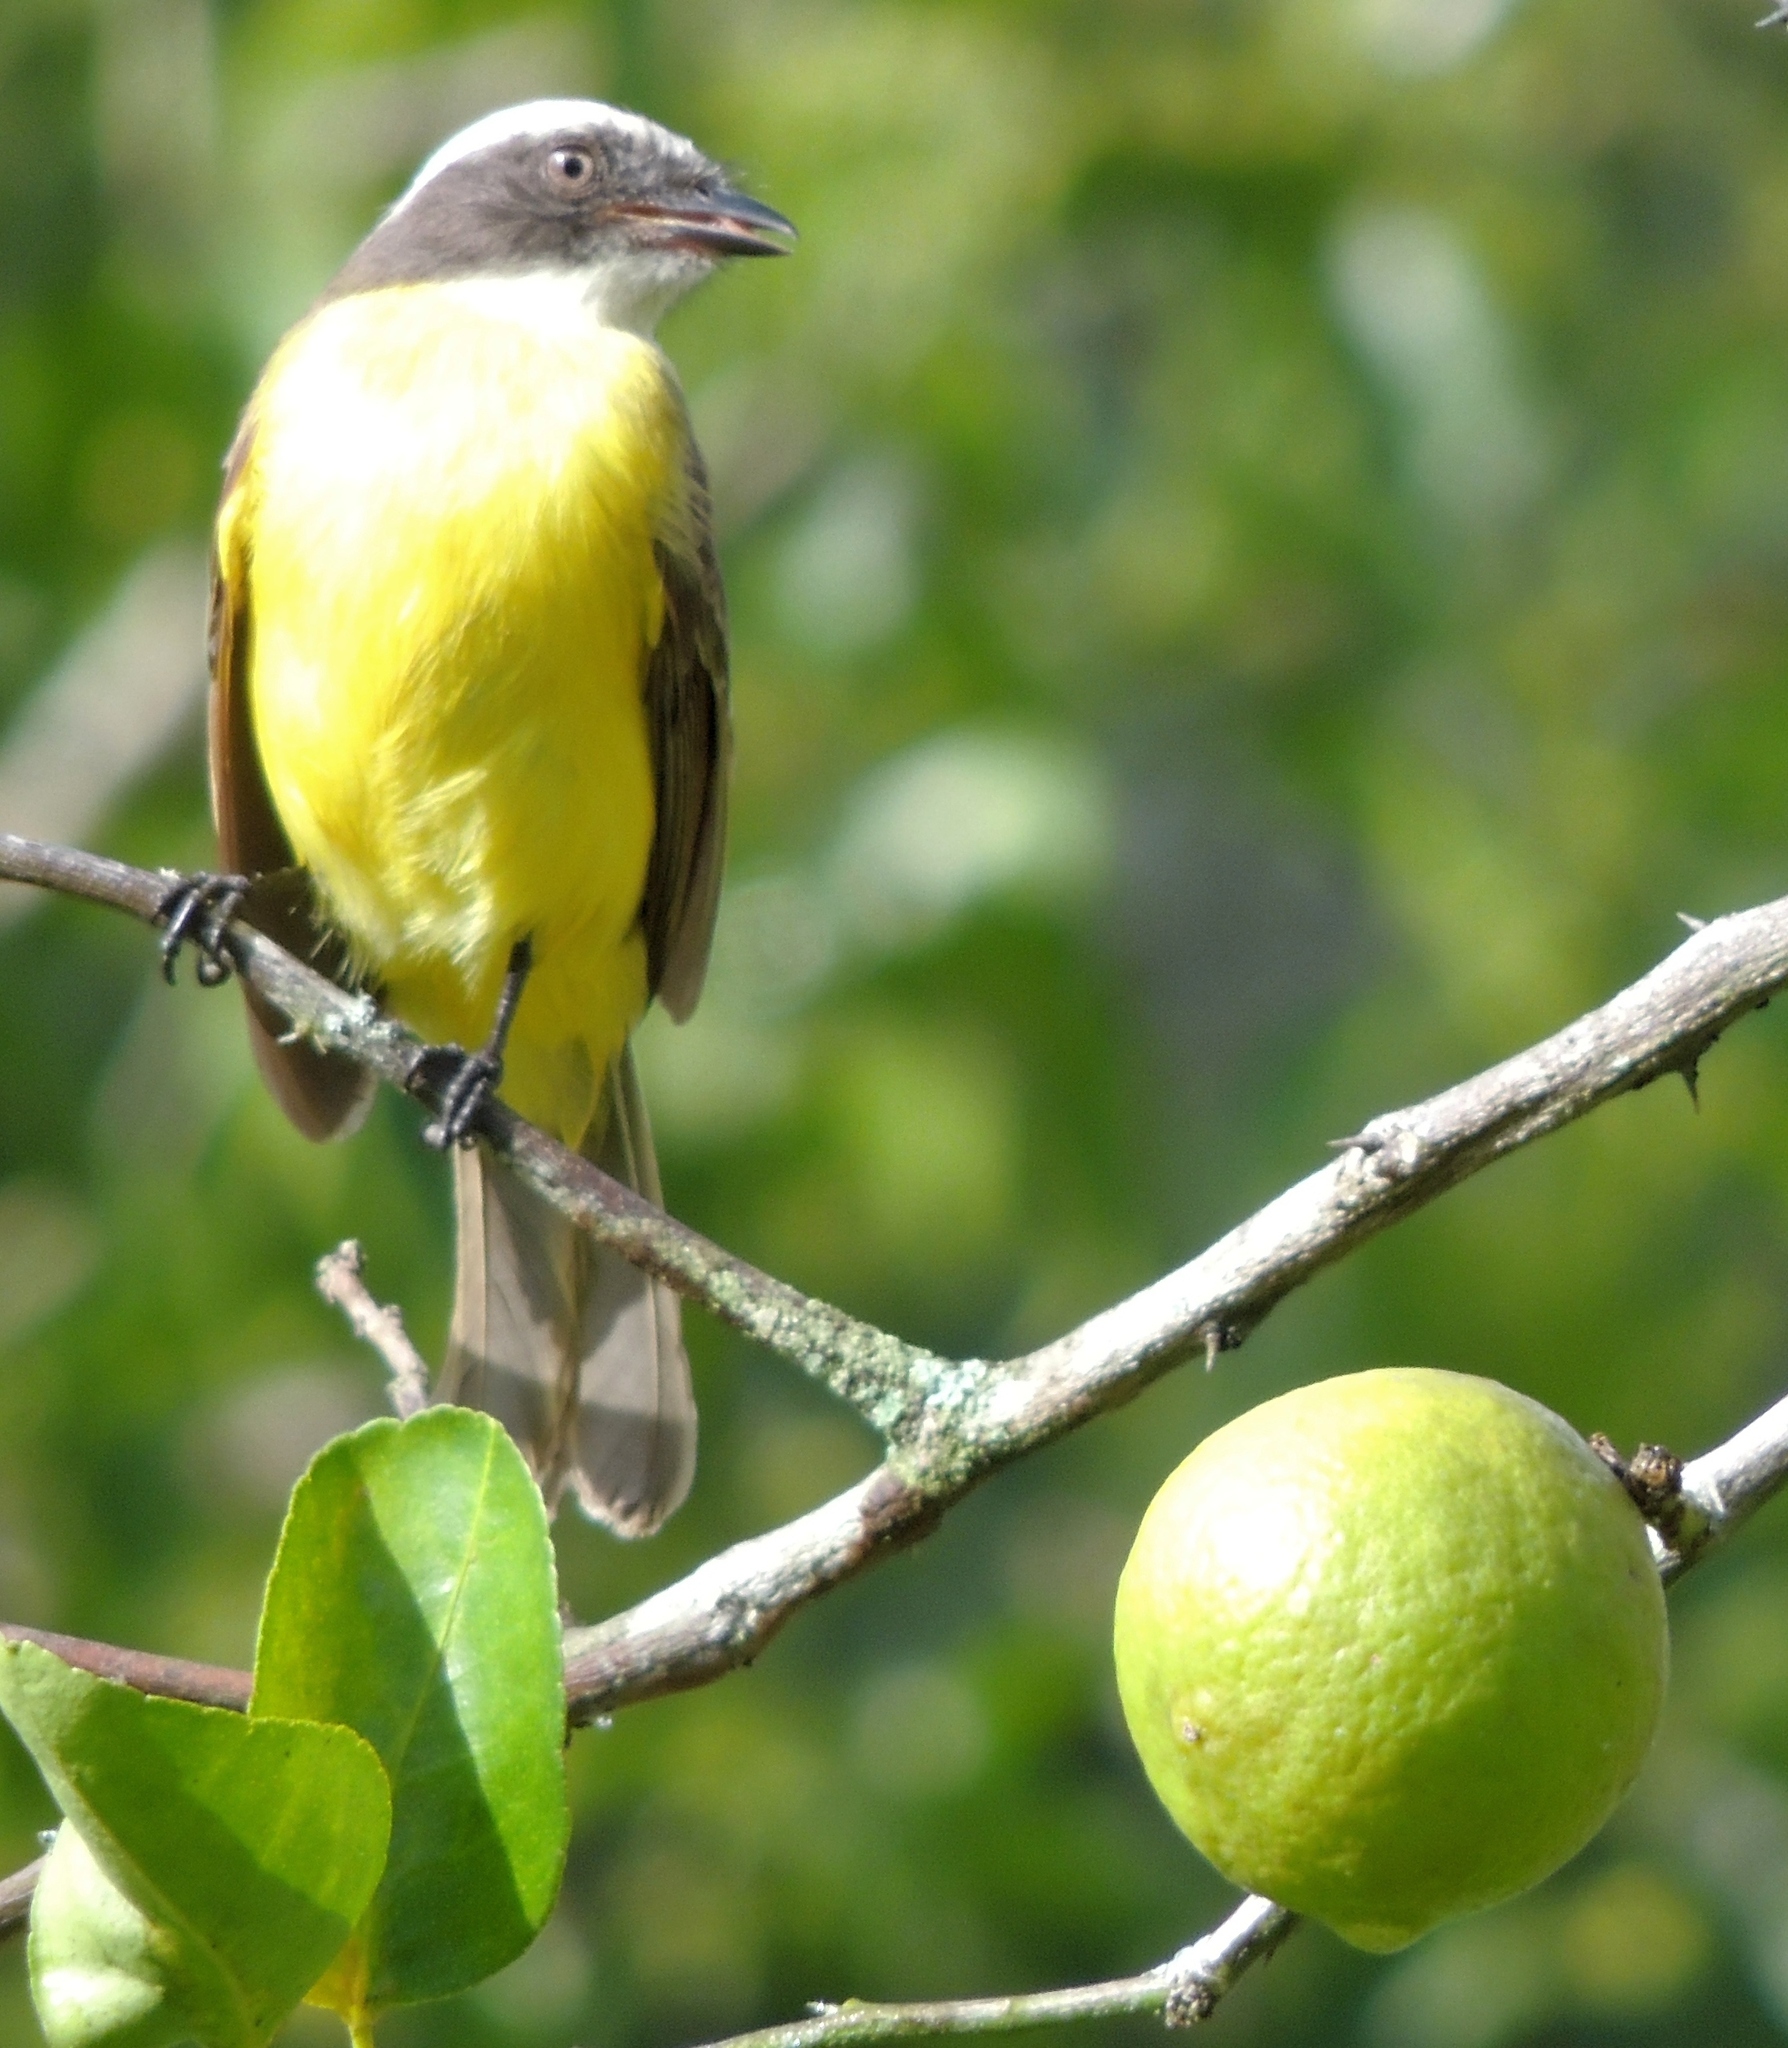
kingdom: Animalia
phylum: Chordata
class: Aves
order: Passeriformes
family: Tyrannidae
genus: Myiozetetes
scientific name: Myiozetetes similis
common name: Social flycatcher
